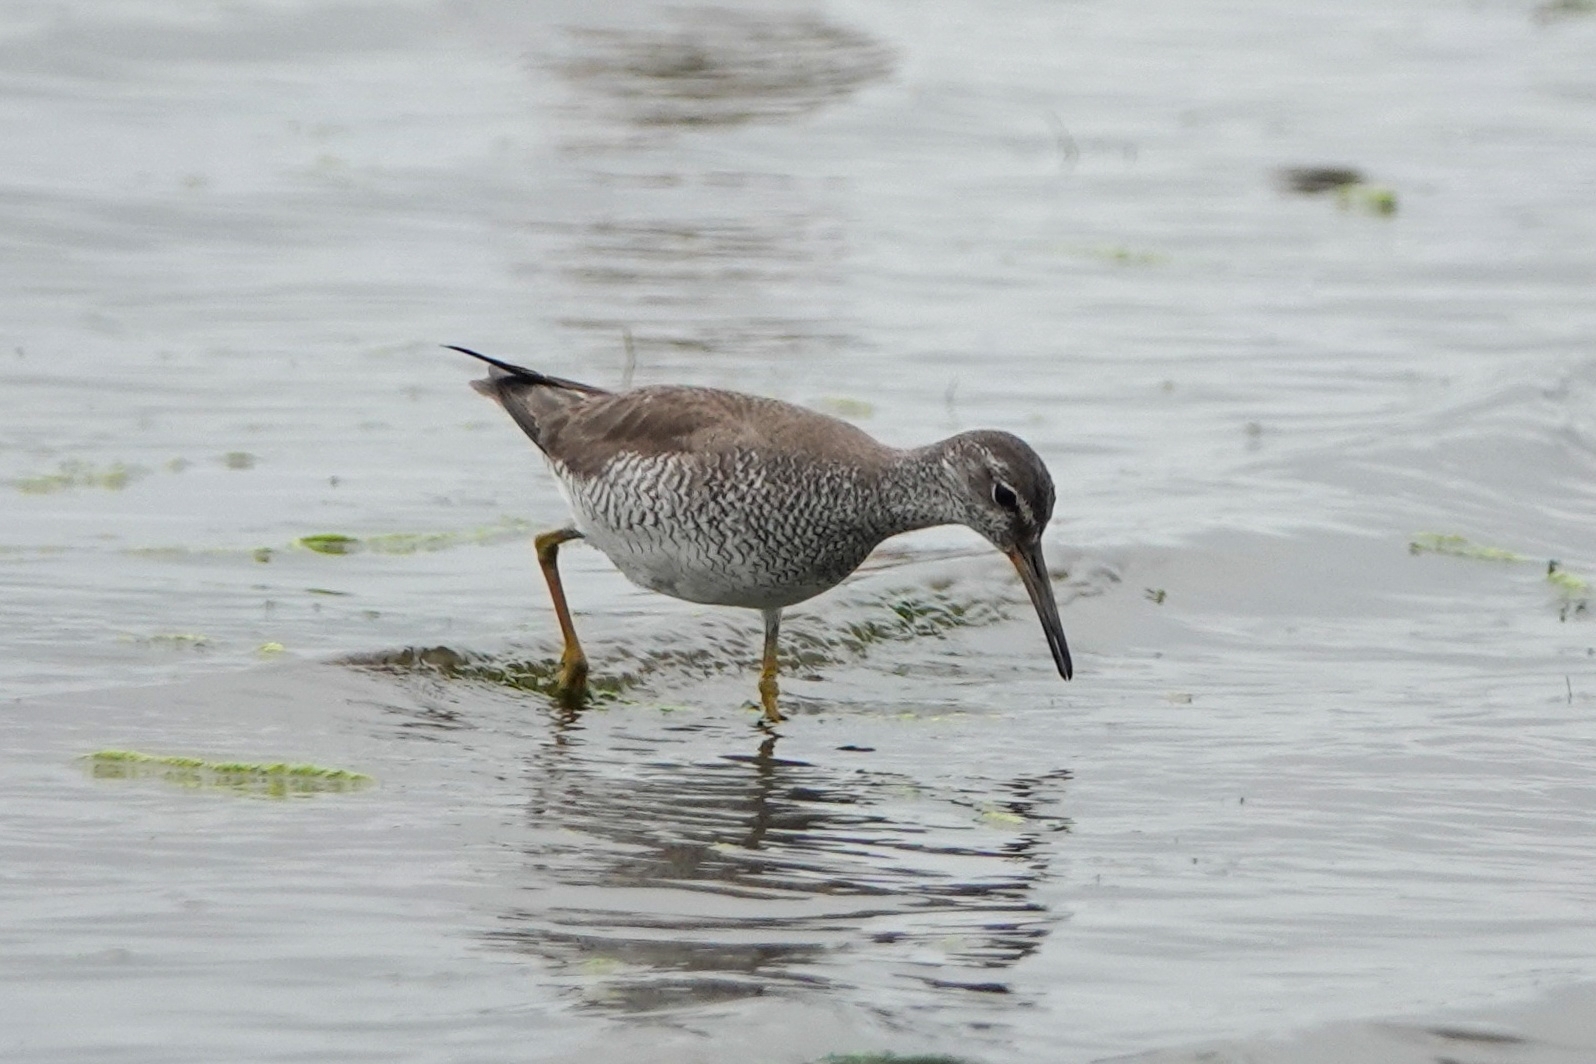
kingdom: Animalia
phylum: Chordata
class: Aves
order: Charadriiformes
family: Scolopacidae
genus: Tringa
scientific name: Tringa brevipes
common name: Grey-tailed tattler
